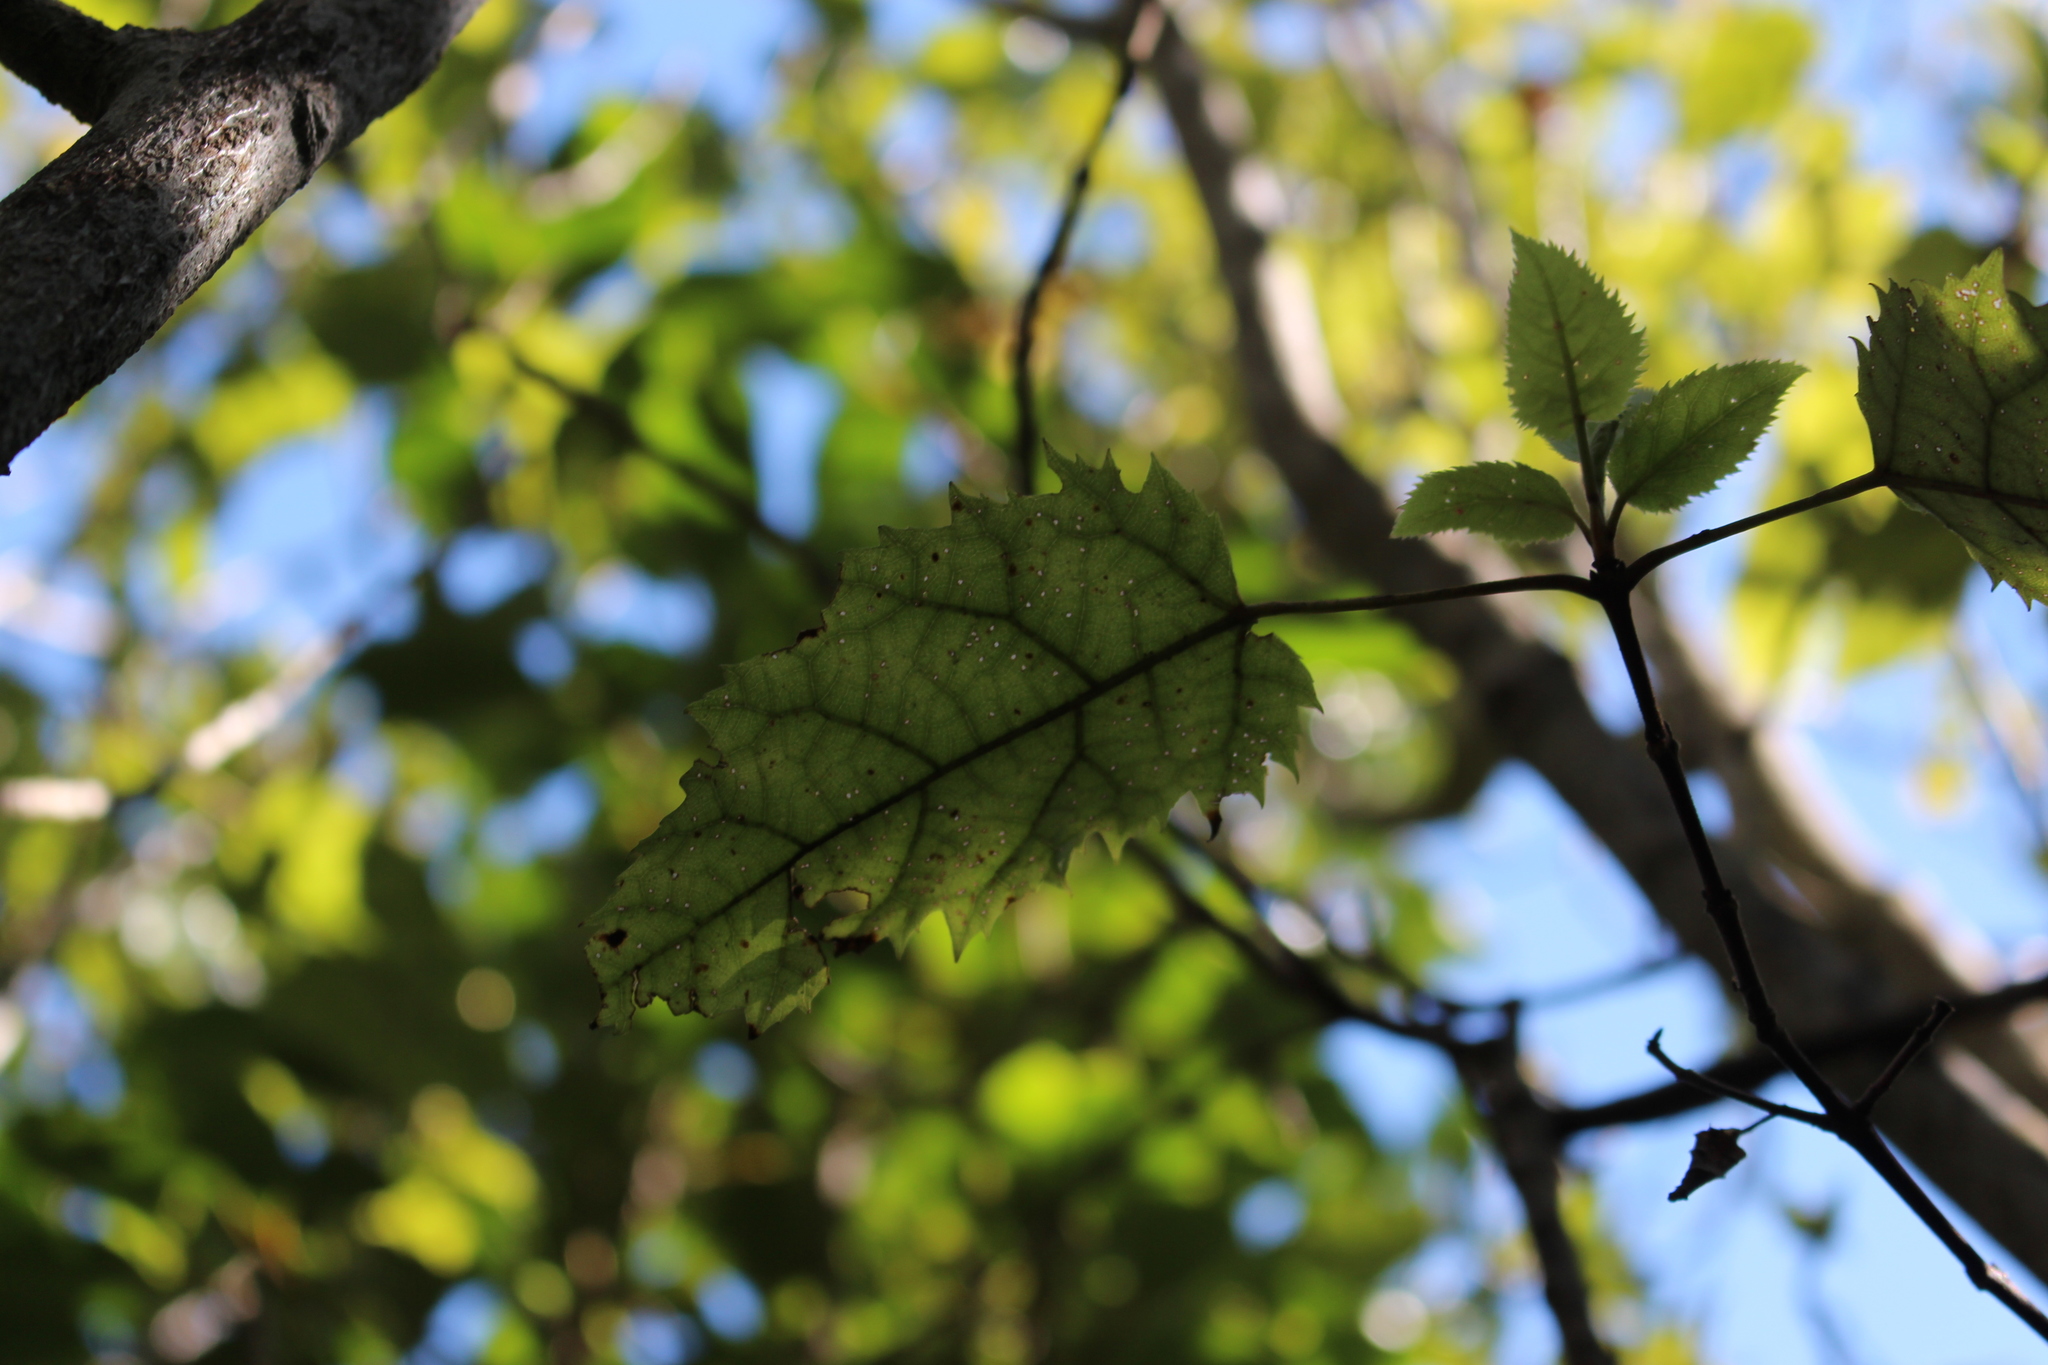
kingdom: Plantae
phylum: Tracheophyta
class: Magnoliopsida
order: Oxalidales
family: Elaeocarpaceae
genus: Aristotelia
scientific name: Aristotelia serrata
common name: New zealand wineberry
